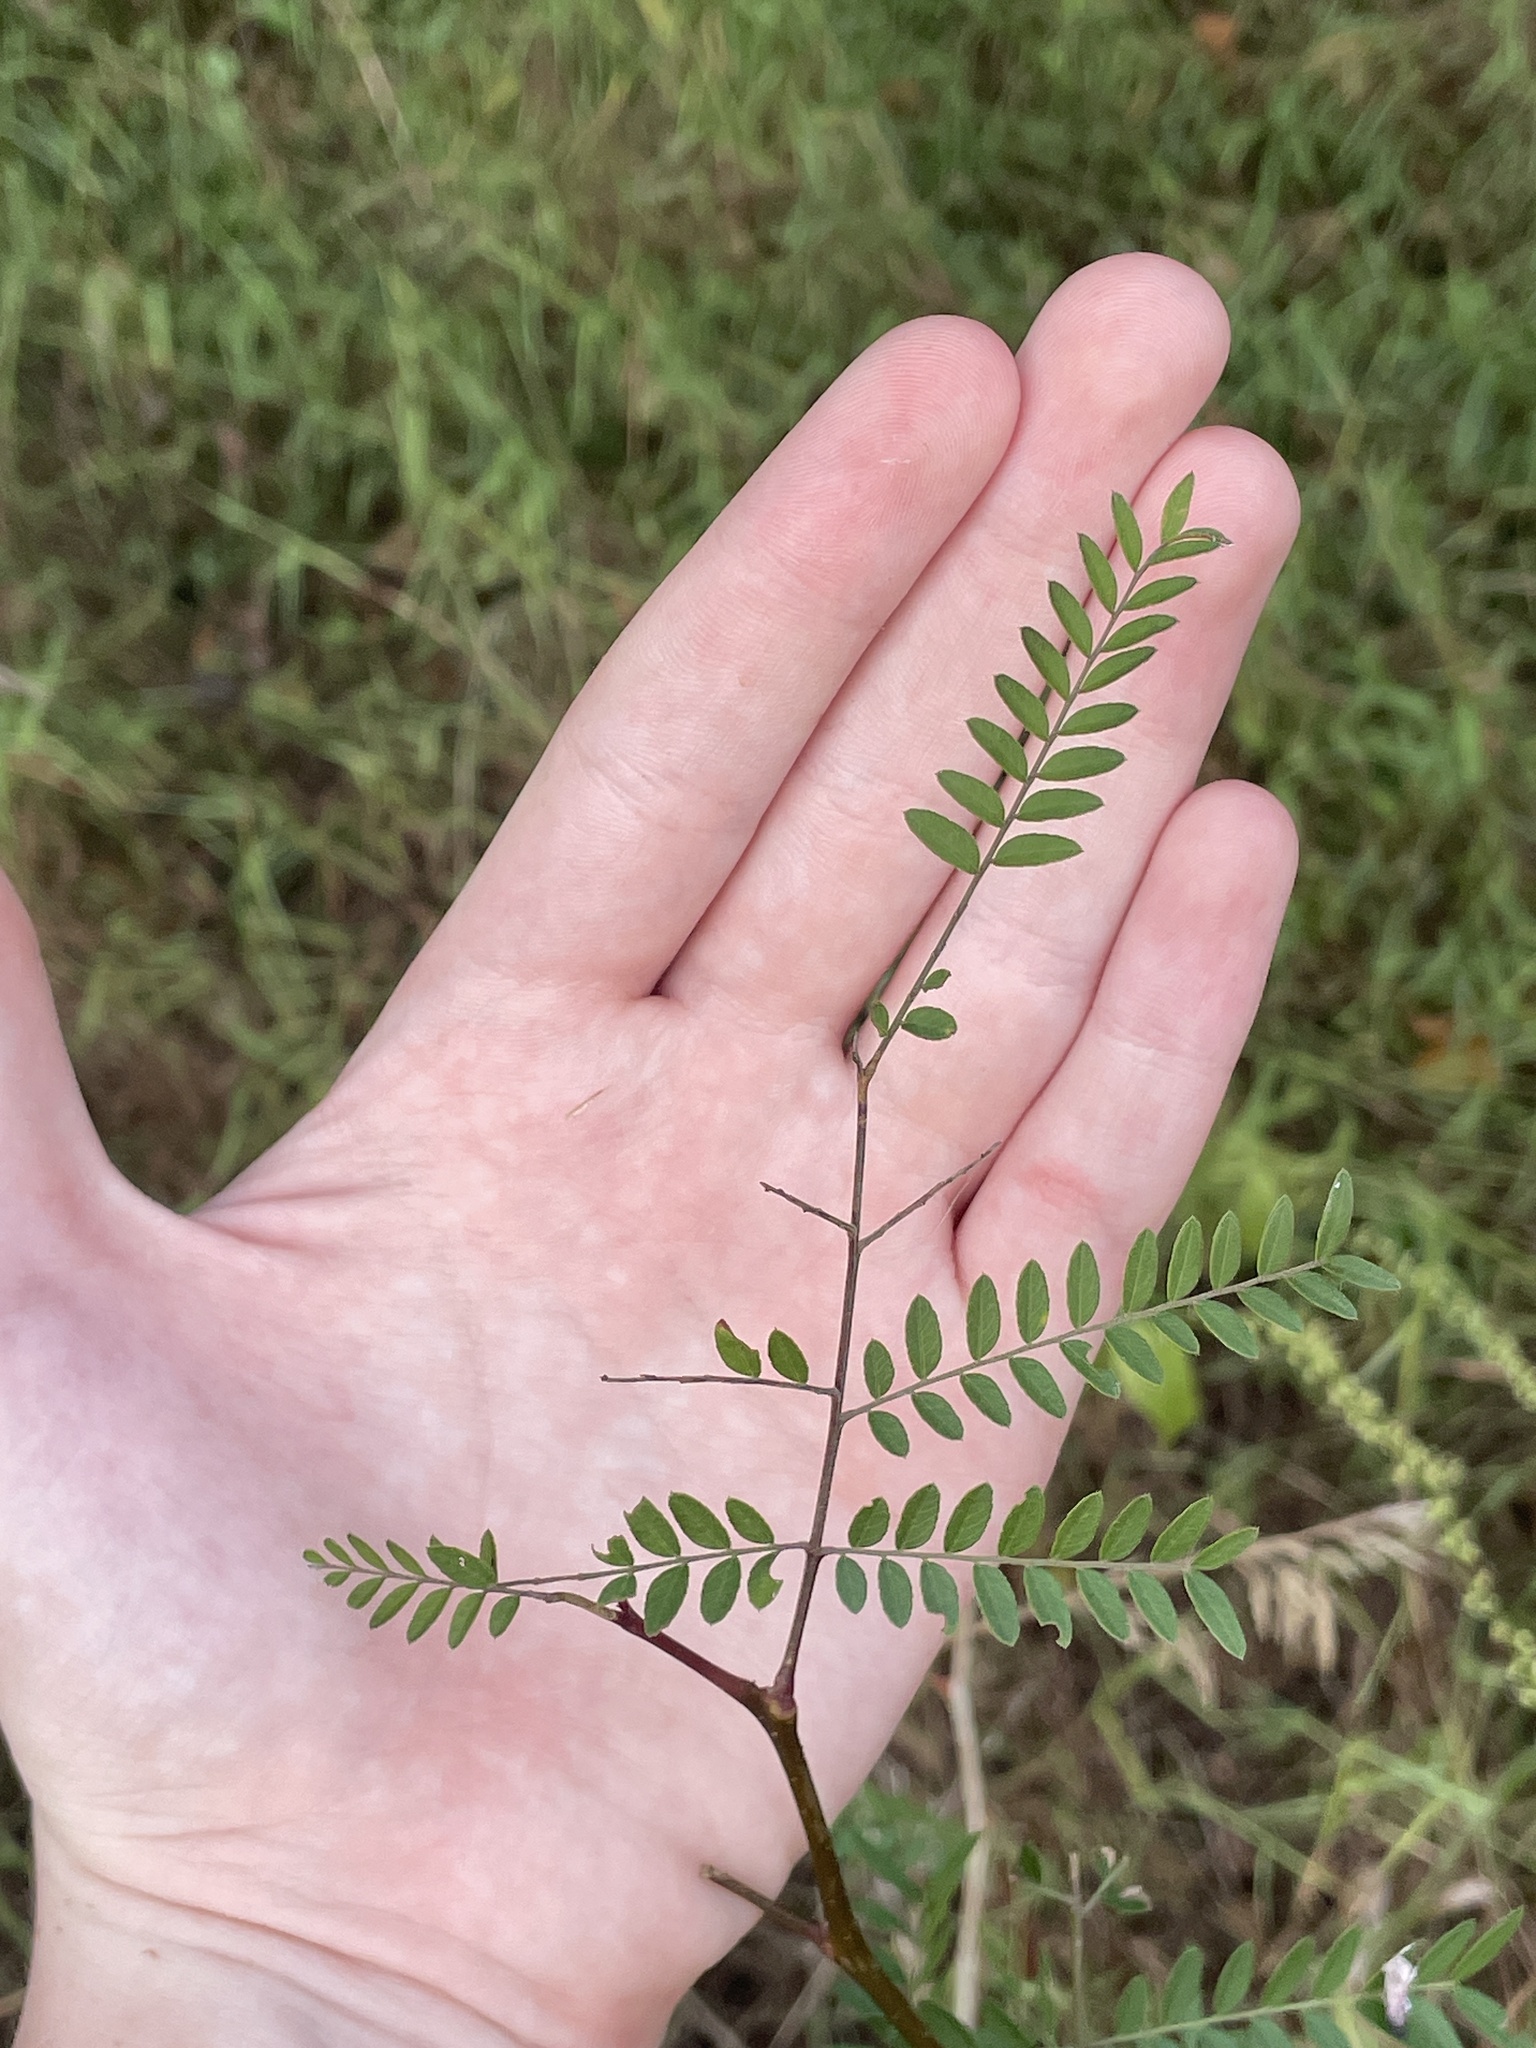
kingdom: Plantae
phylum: Tracheophyta
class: Magnoliopsida
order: Fabales
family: Fabaceae
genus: Gleditsia
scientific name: Gleditsia triacanthos
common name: Common honeylocust
